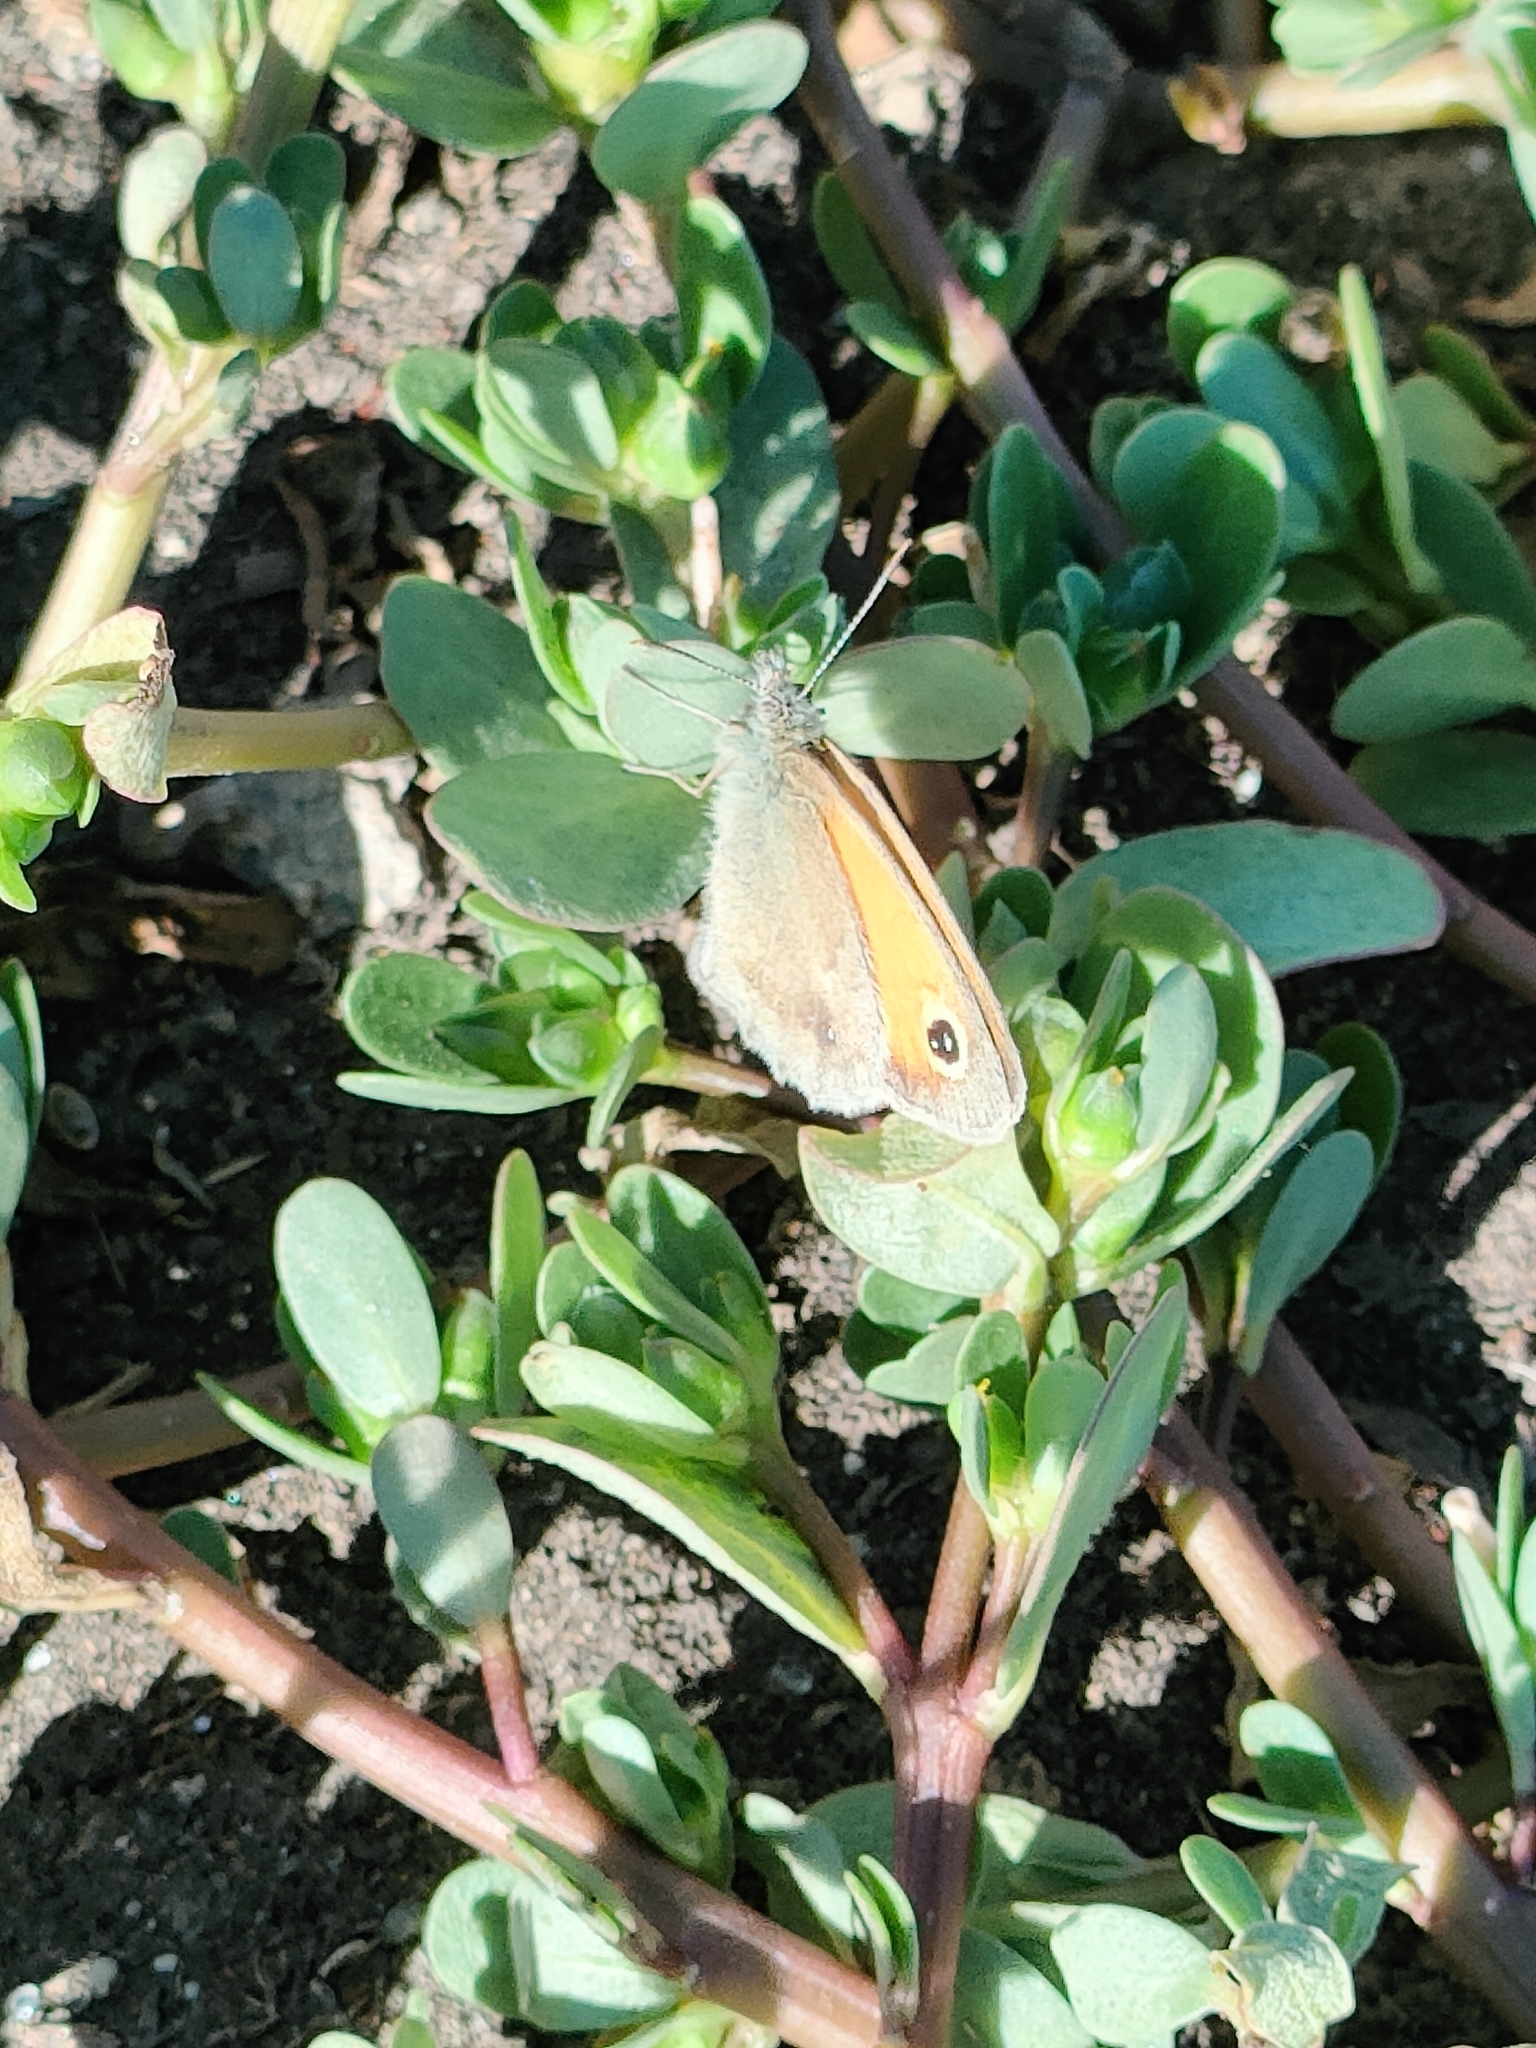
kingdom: Animalia
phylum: Arthropoda
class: Insecta
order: Lepidoptera
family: Nymphalidae
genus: Coenonympha
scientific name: Coenonympha pamphilus
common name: Small heath
